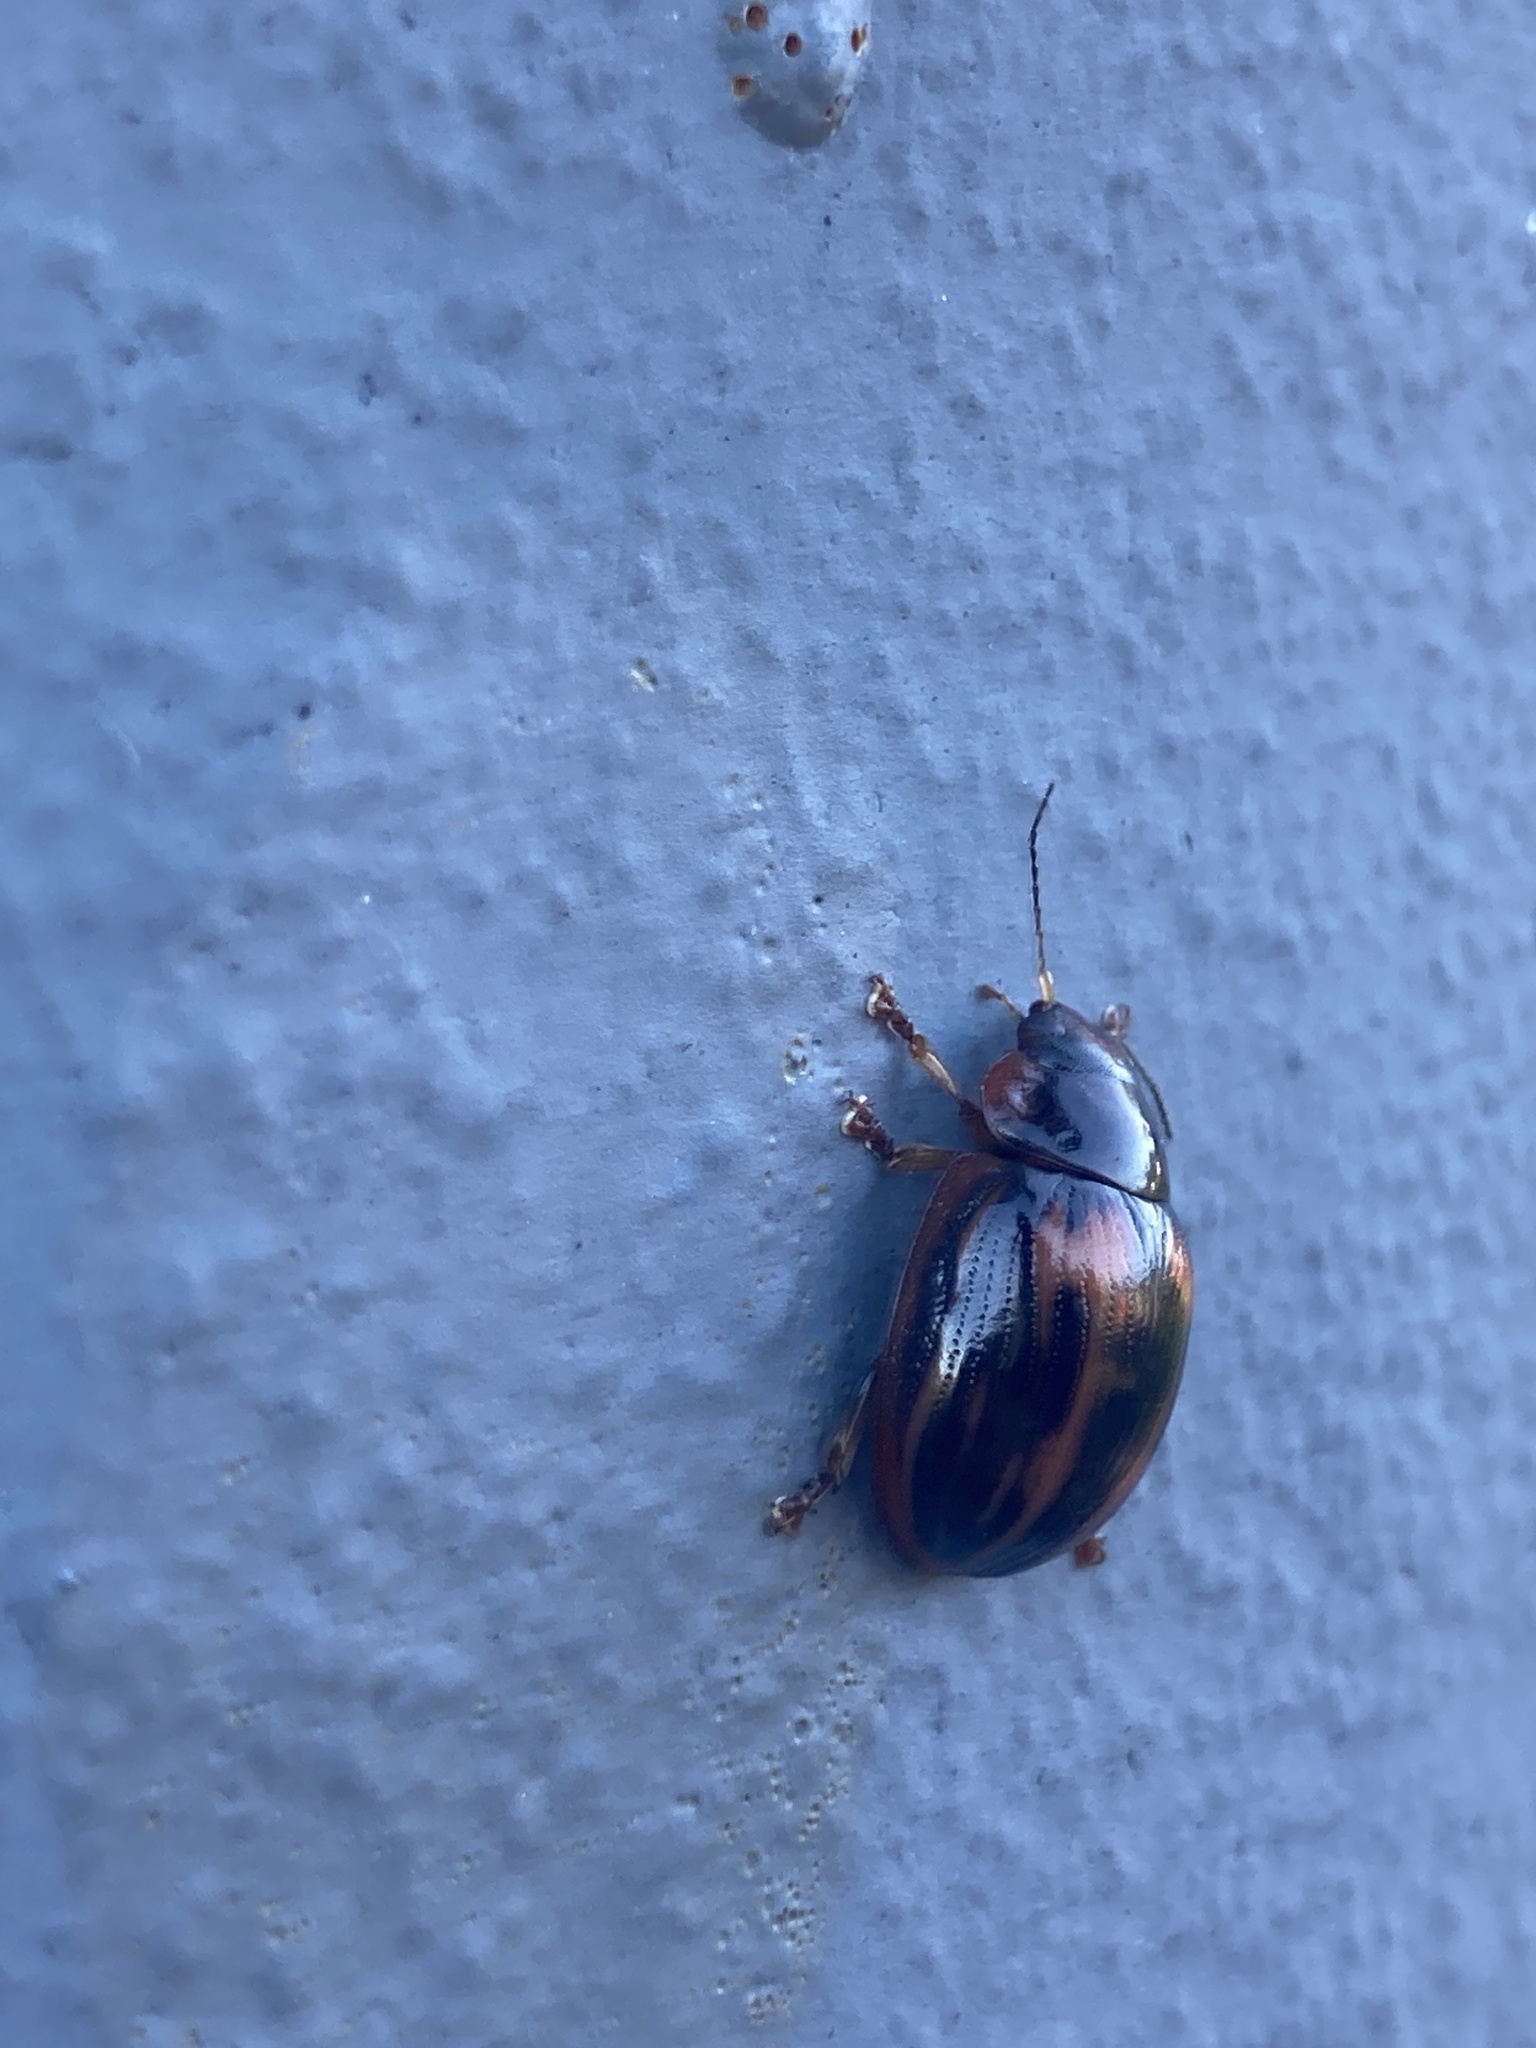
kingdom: Animalia
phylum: Arthropoda
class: Insecta
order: Coleoptera
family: Chrysomelidae
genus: Paropsisterna
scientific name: Paropsisterna
